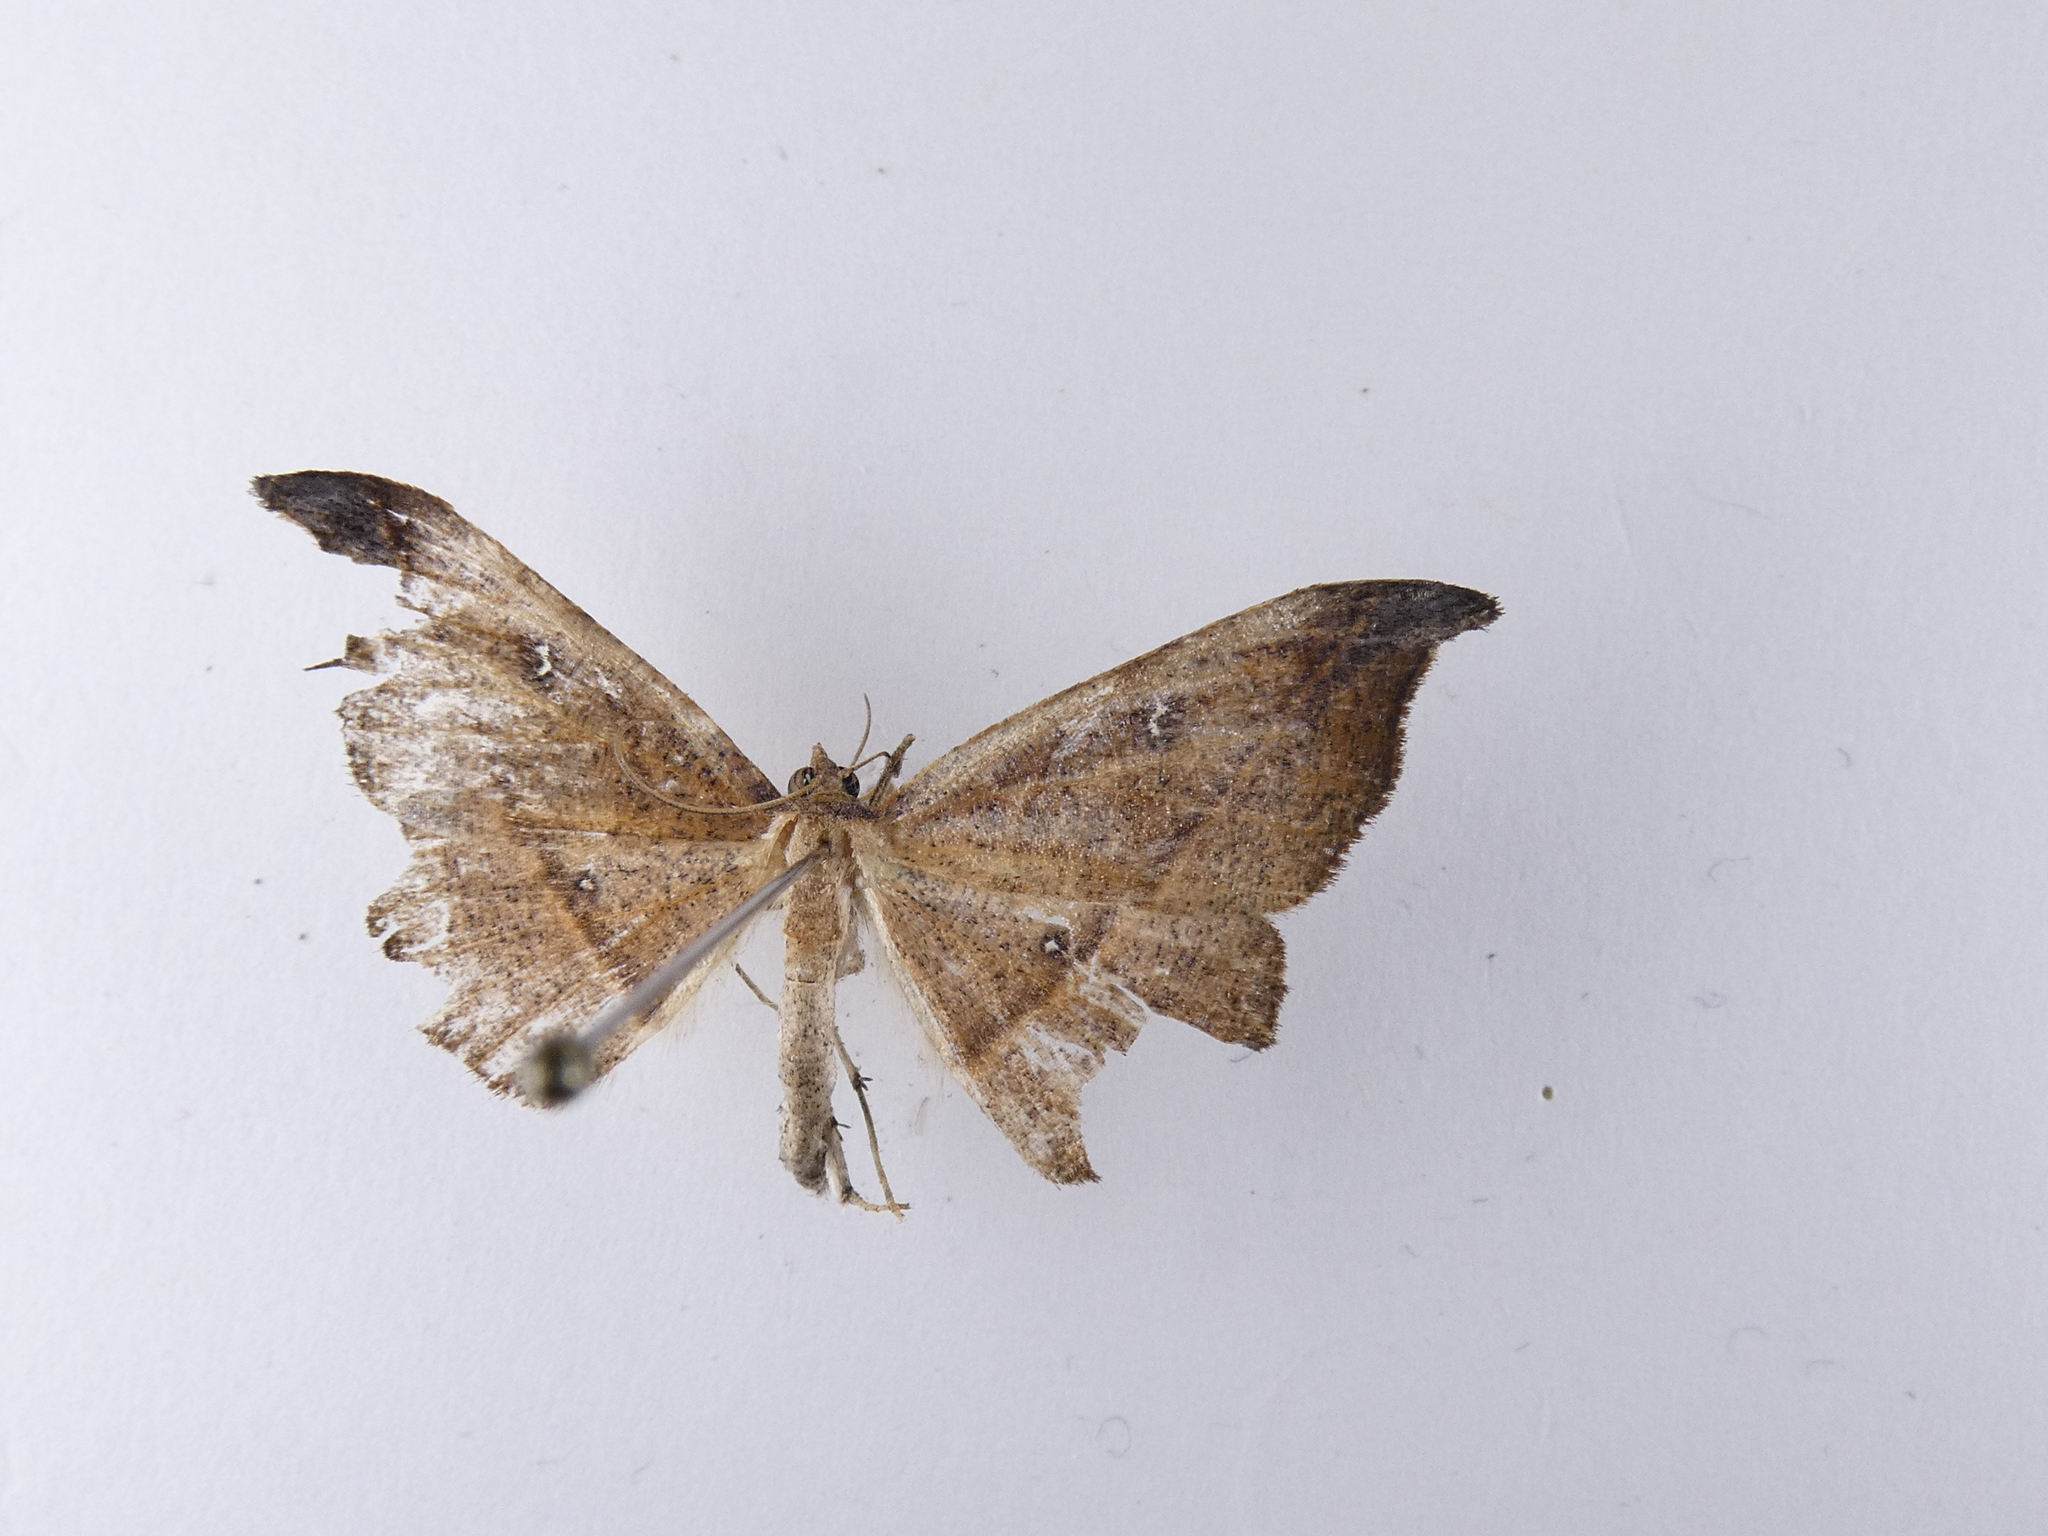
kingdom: Animalia
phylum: Arthropoda
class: Insecta
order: Lepidoptera
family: Geometridae
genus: Sarisa
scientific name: Sarisa muriferata
